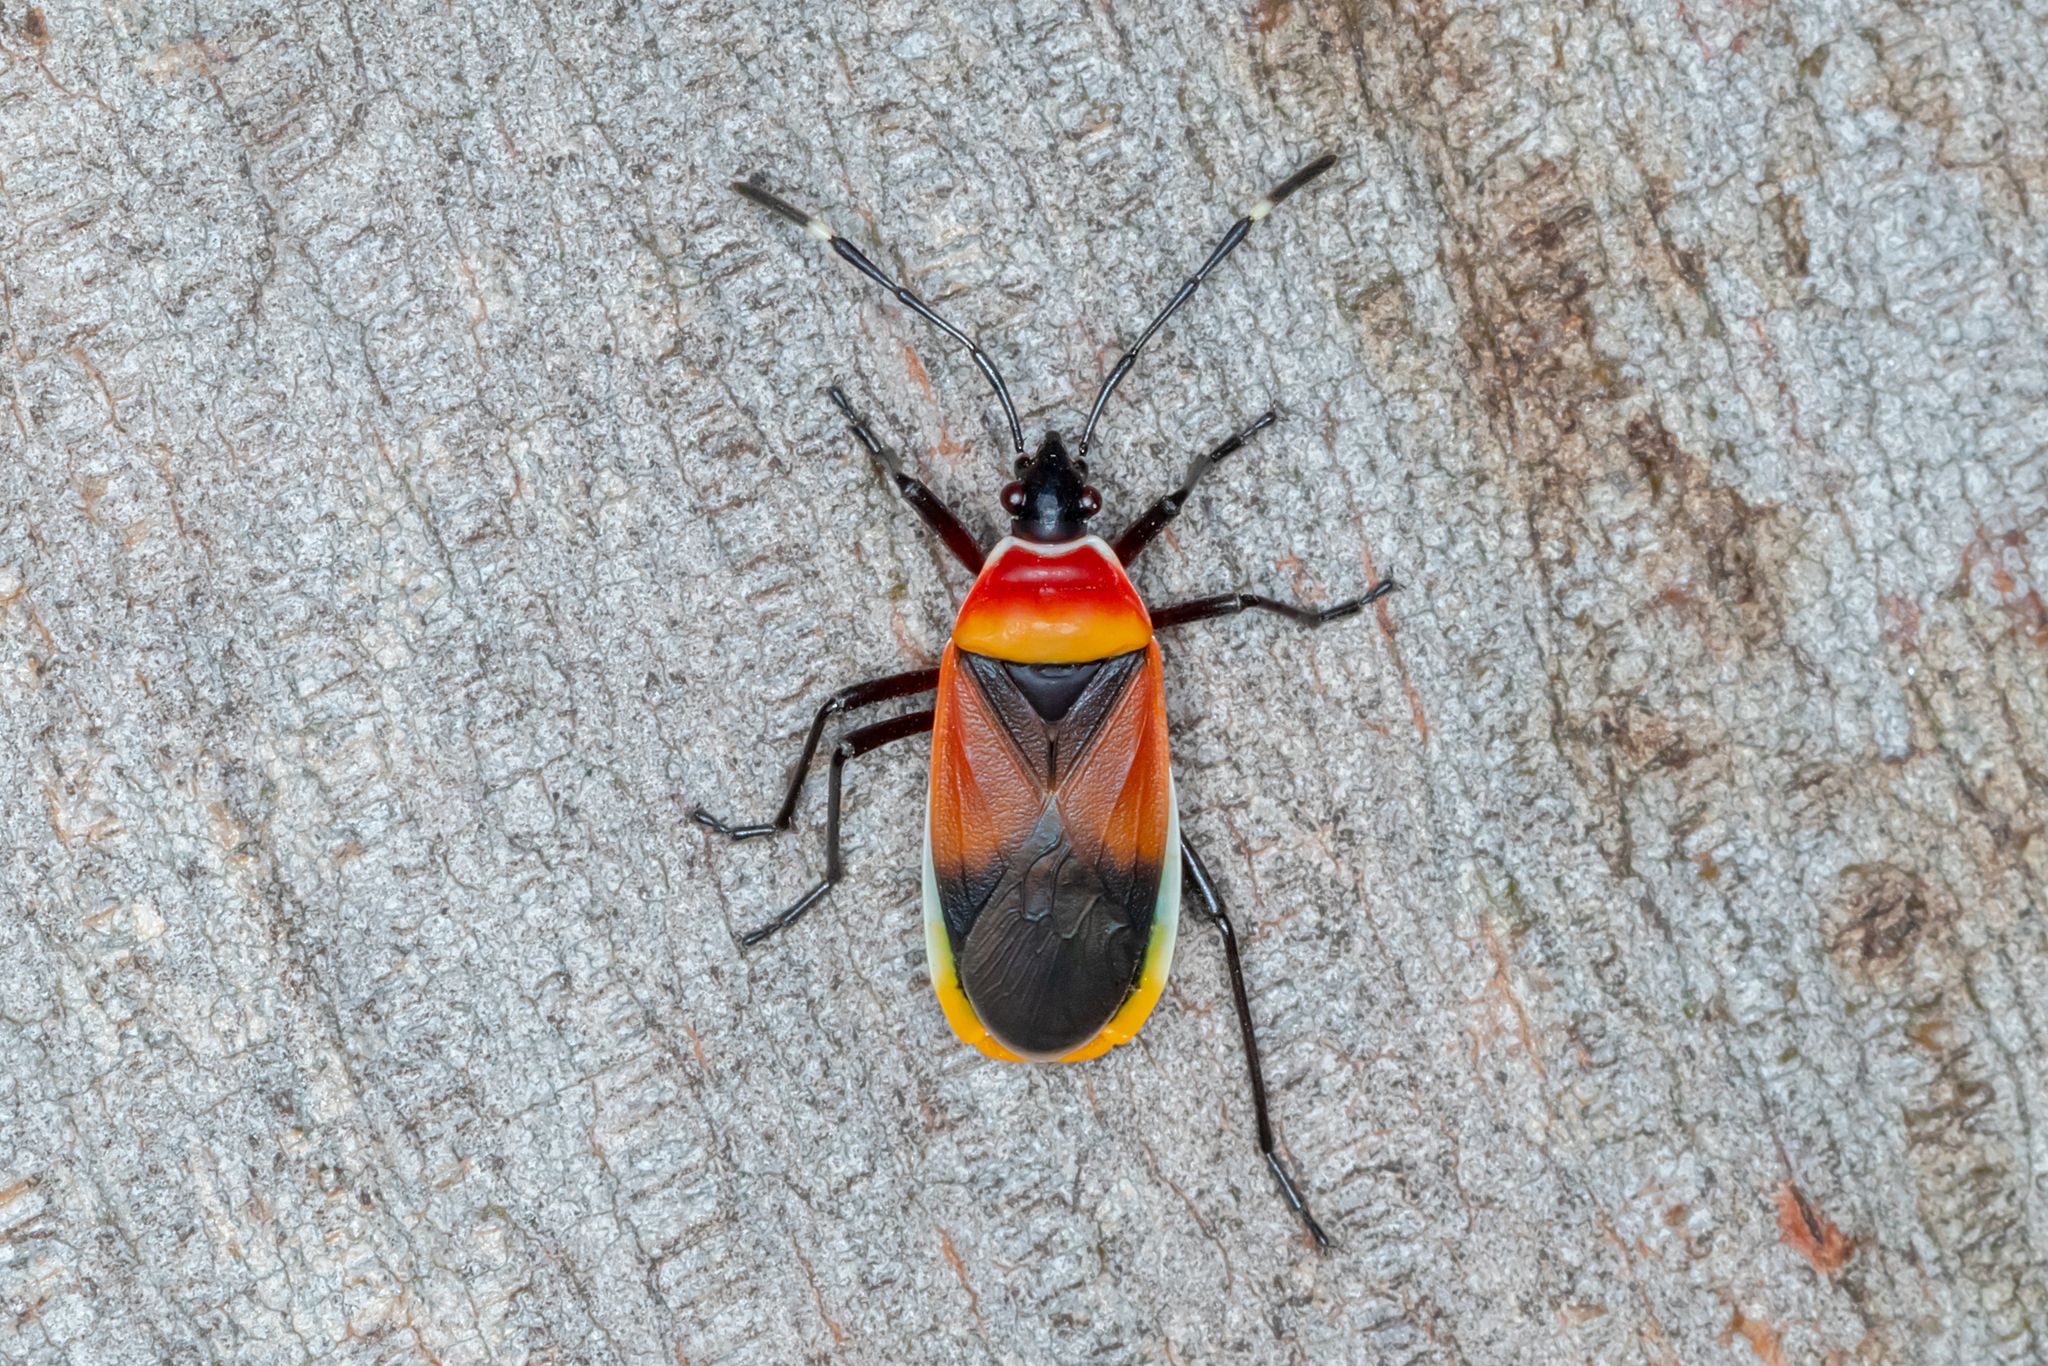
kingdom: Animalia
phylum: Arthropoda
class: Insecta
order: Hemiptera
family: Pyrrhocoridae
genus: Dindymus
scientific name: Dindymus
